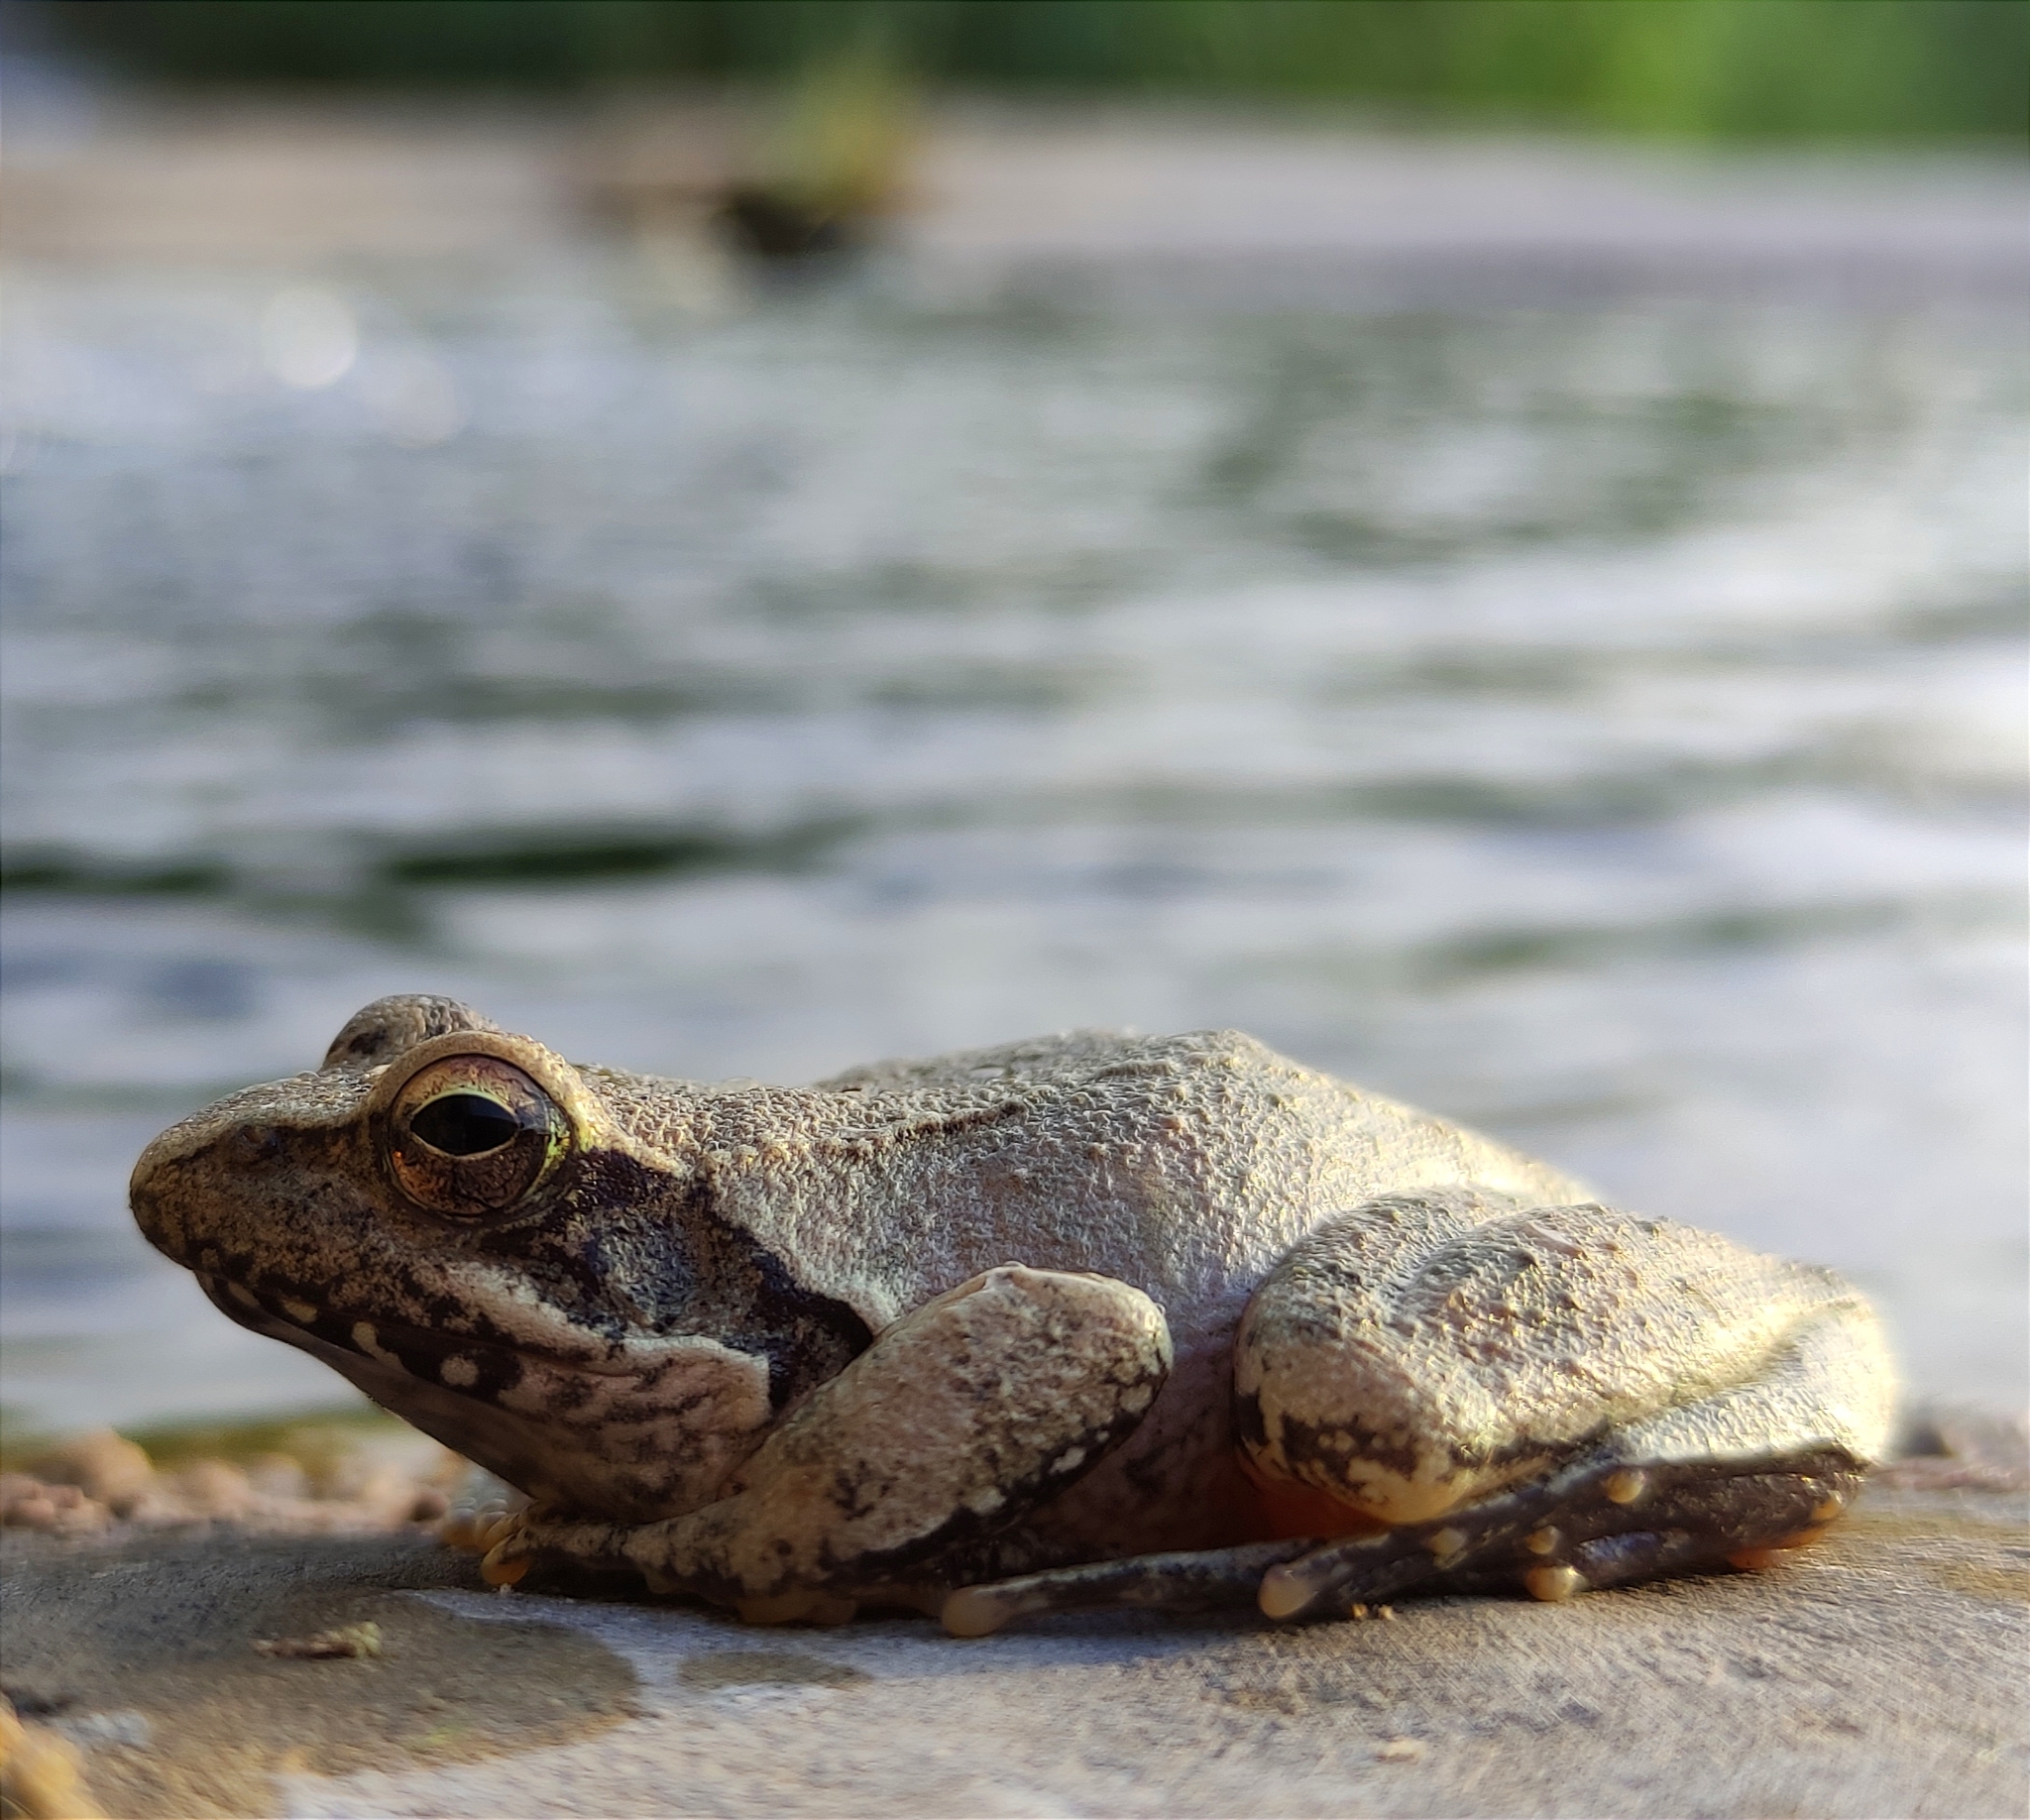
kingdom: Animalia
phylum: Chordata
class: Amphibia
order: Anura
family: Ranidae
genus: Rana
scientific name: Rana italica
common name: Italian stream frog
